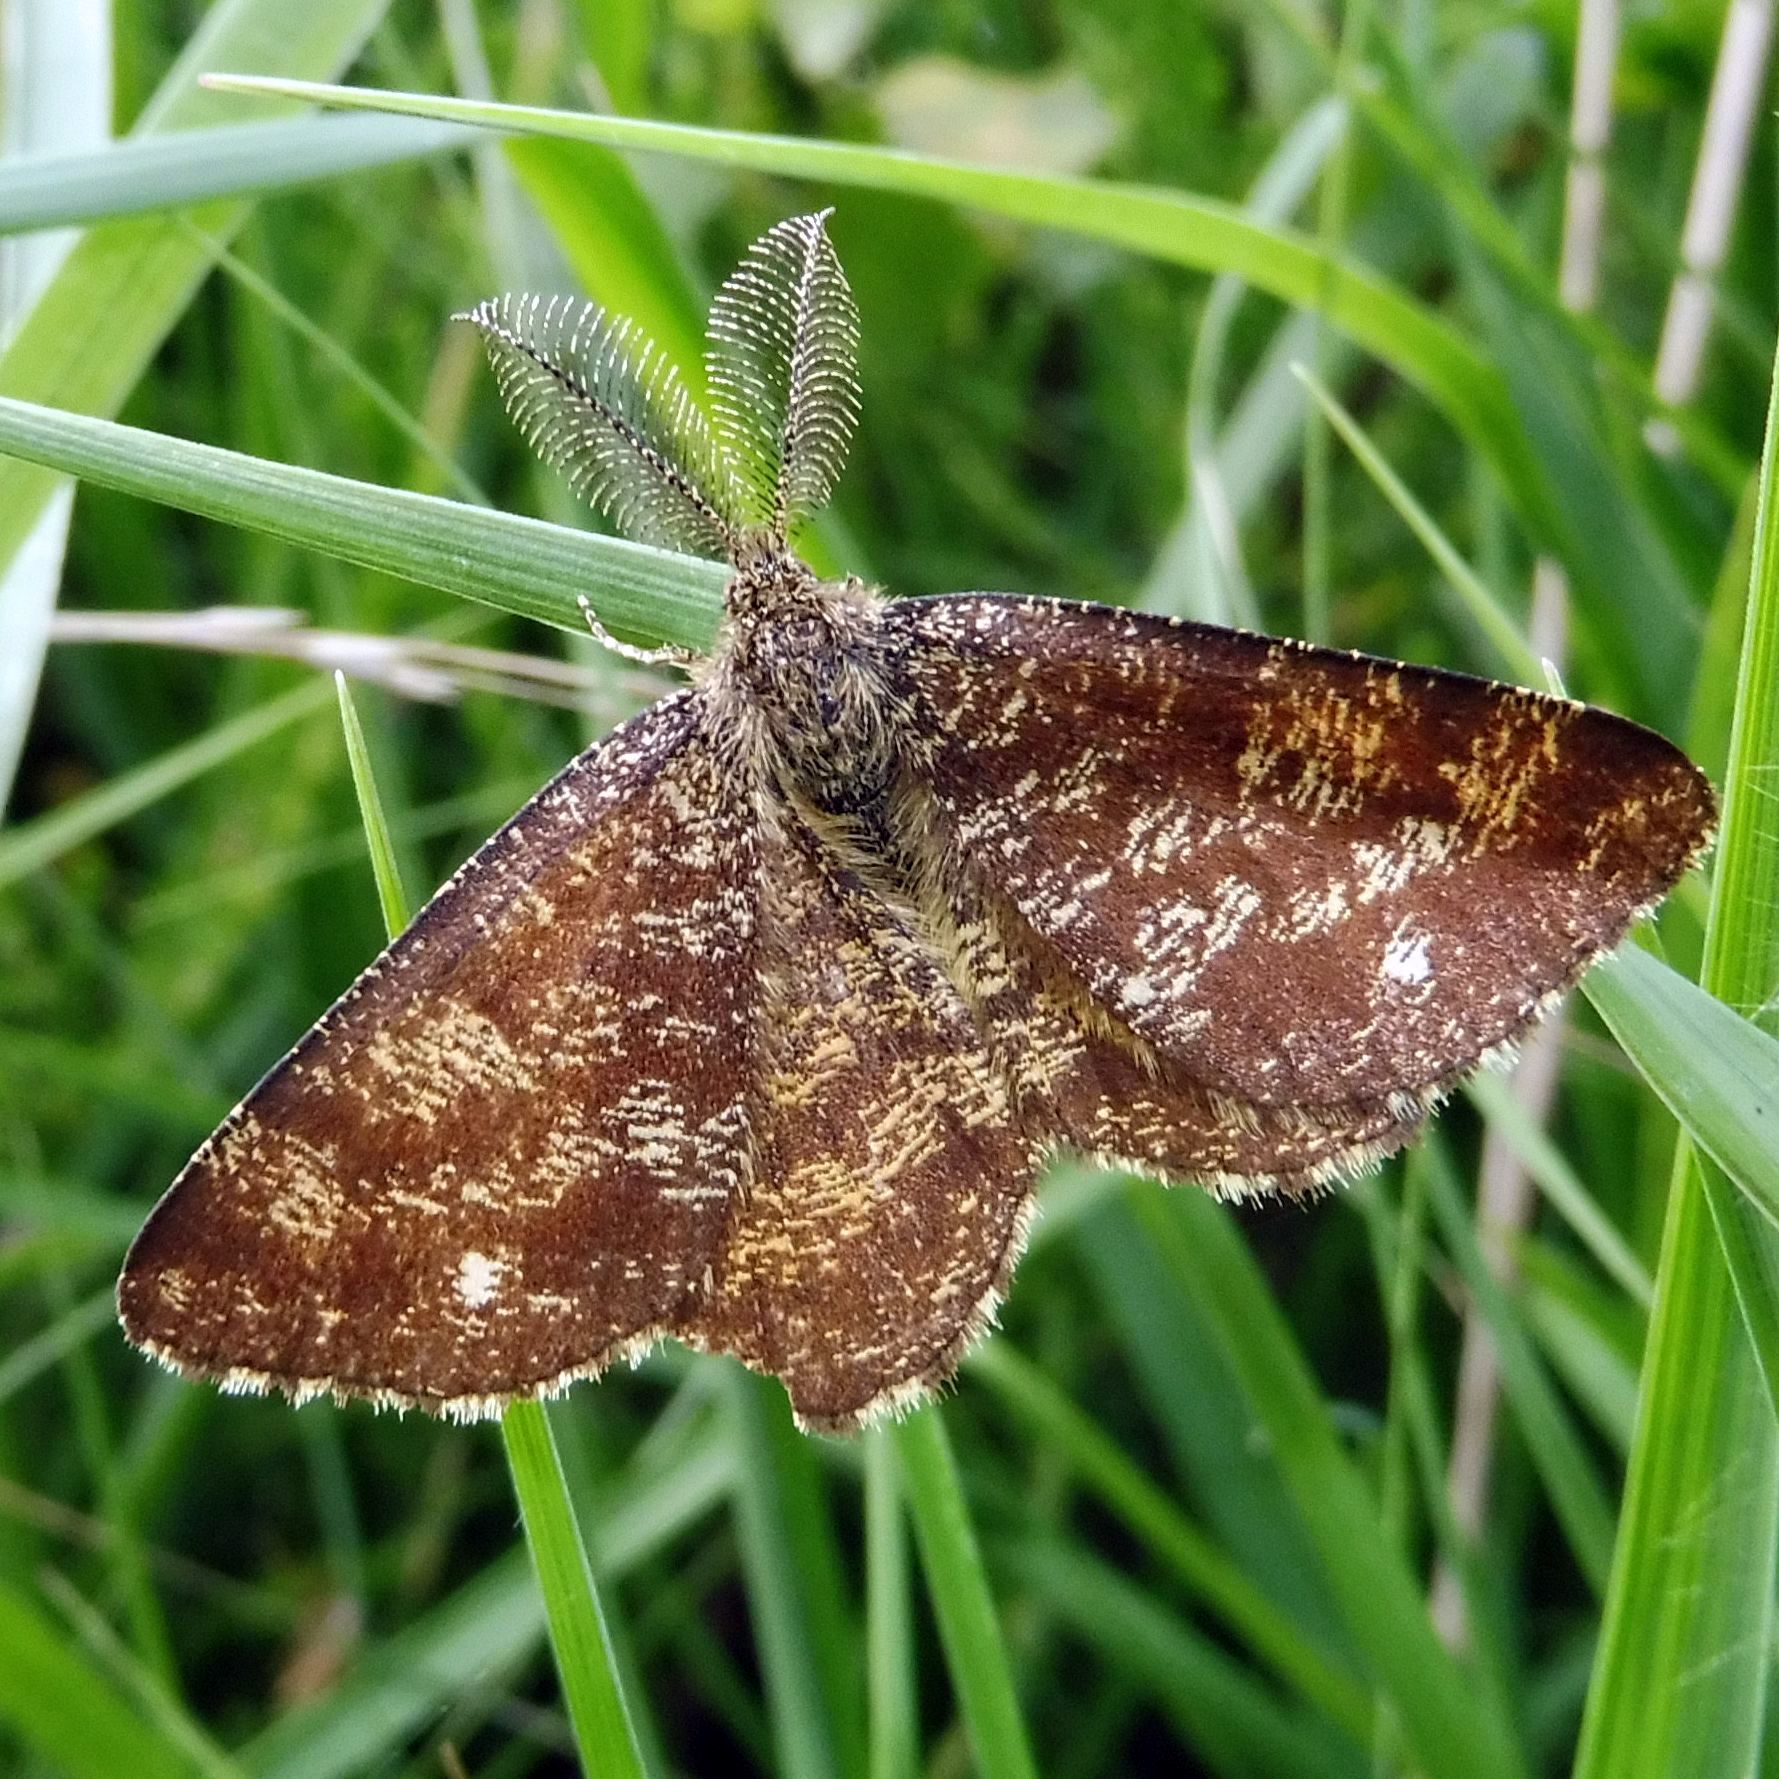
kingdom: Animalia
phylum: Arthropoda
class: Insecta
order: Lepidoptera
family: Geometridae
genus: Ematurga
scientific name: Ematurga atomaria
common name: Common heath
